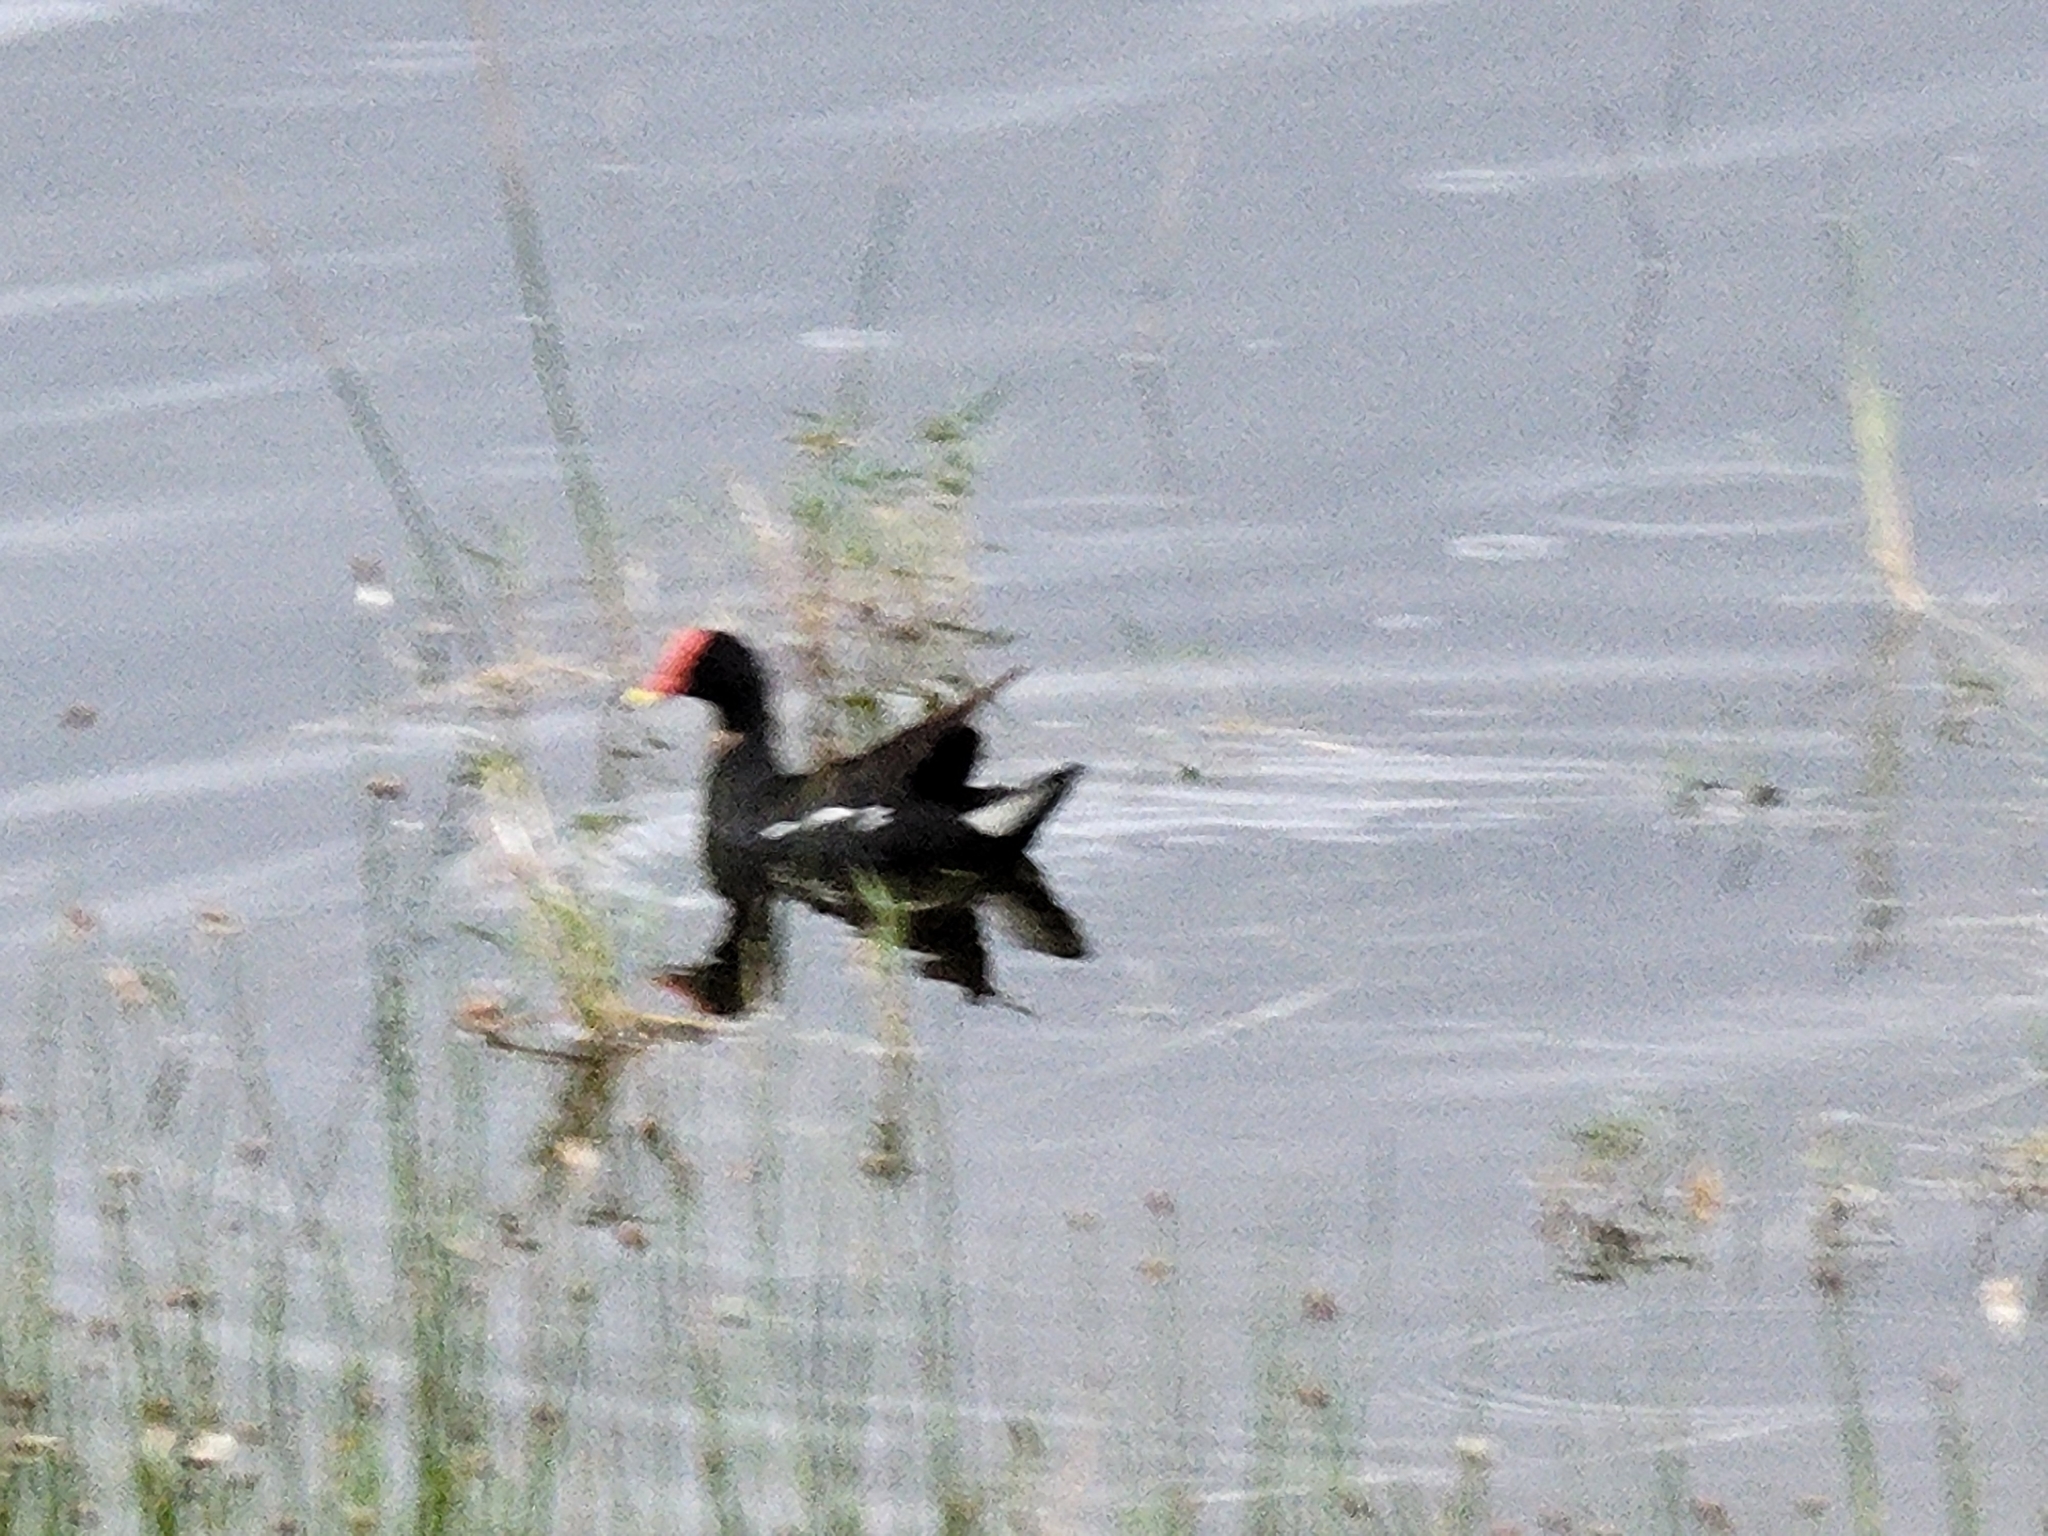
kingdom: Animalia
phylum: Chordata
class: Aves
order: Gruiformes
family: Rallidae
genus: Gallinula
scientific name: Gallinula chloropus
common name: Common moorhen
